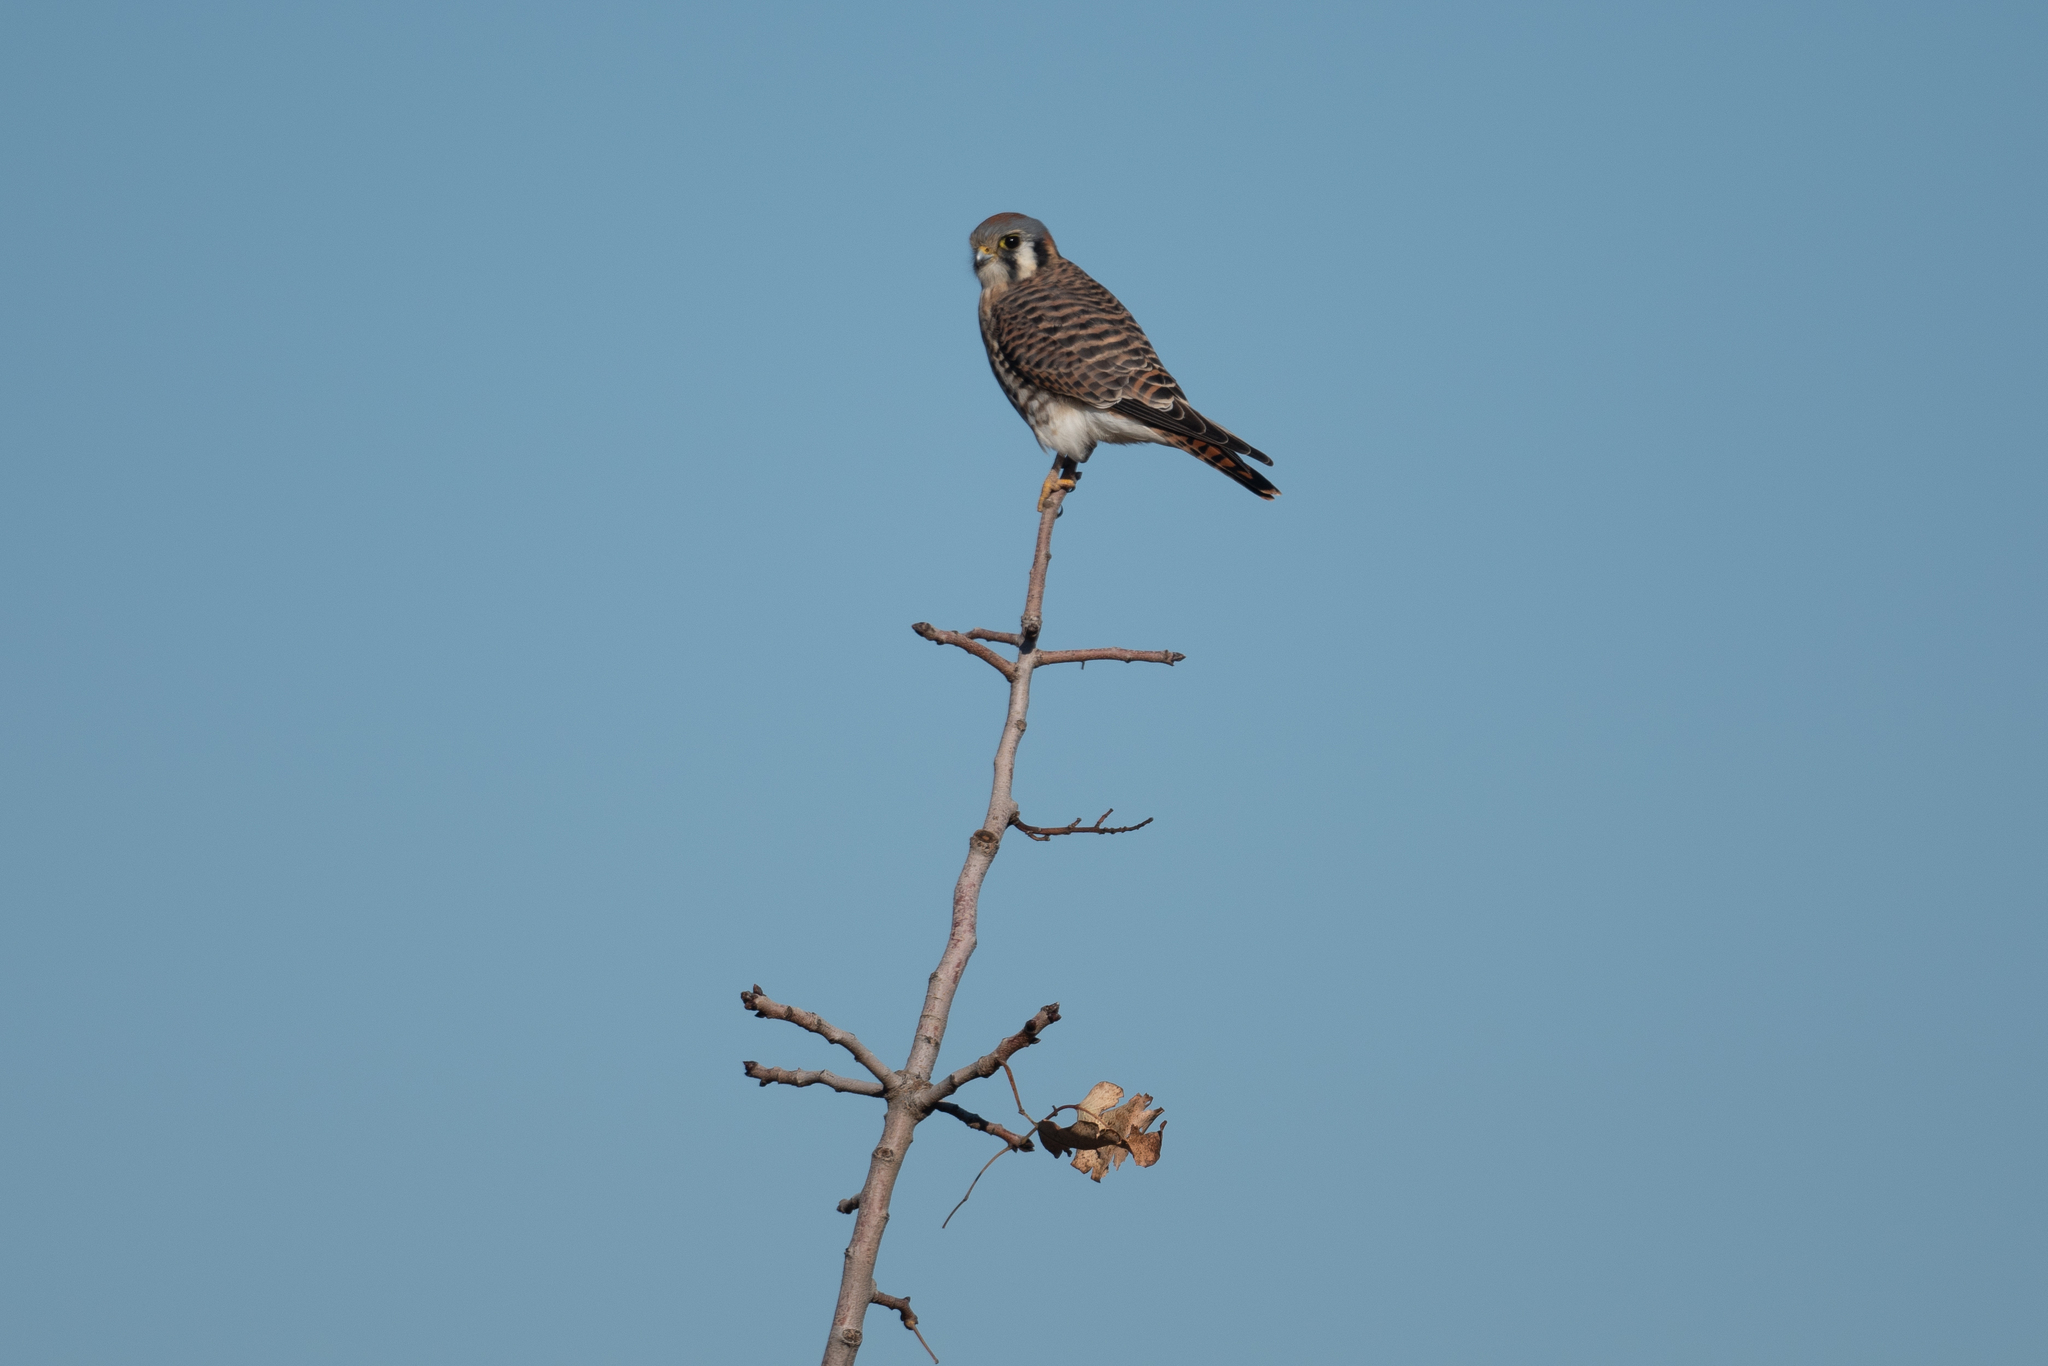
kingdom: Animalia
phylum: Chordata
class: Aves
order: Falconiformes
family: Falconidae
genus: Falco
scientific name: Falco sparverius
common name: American kestrel
